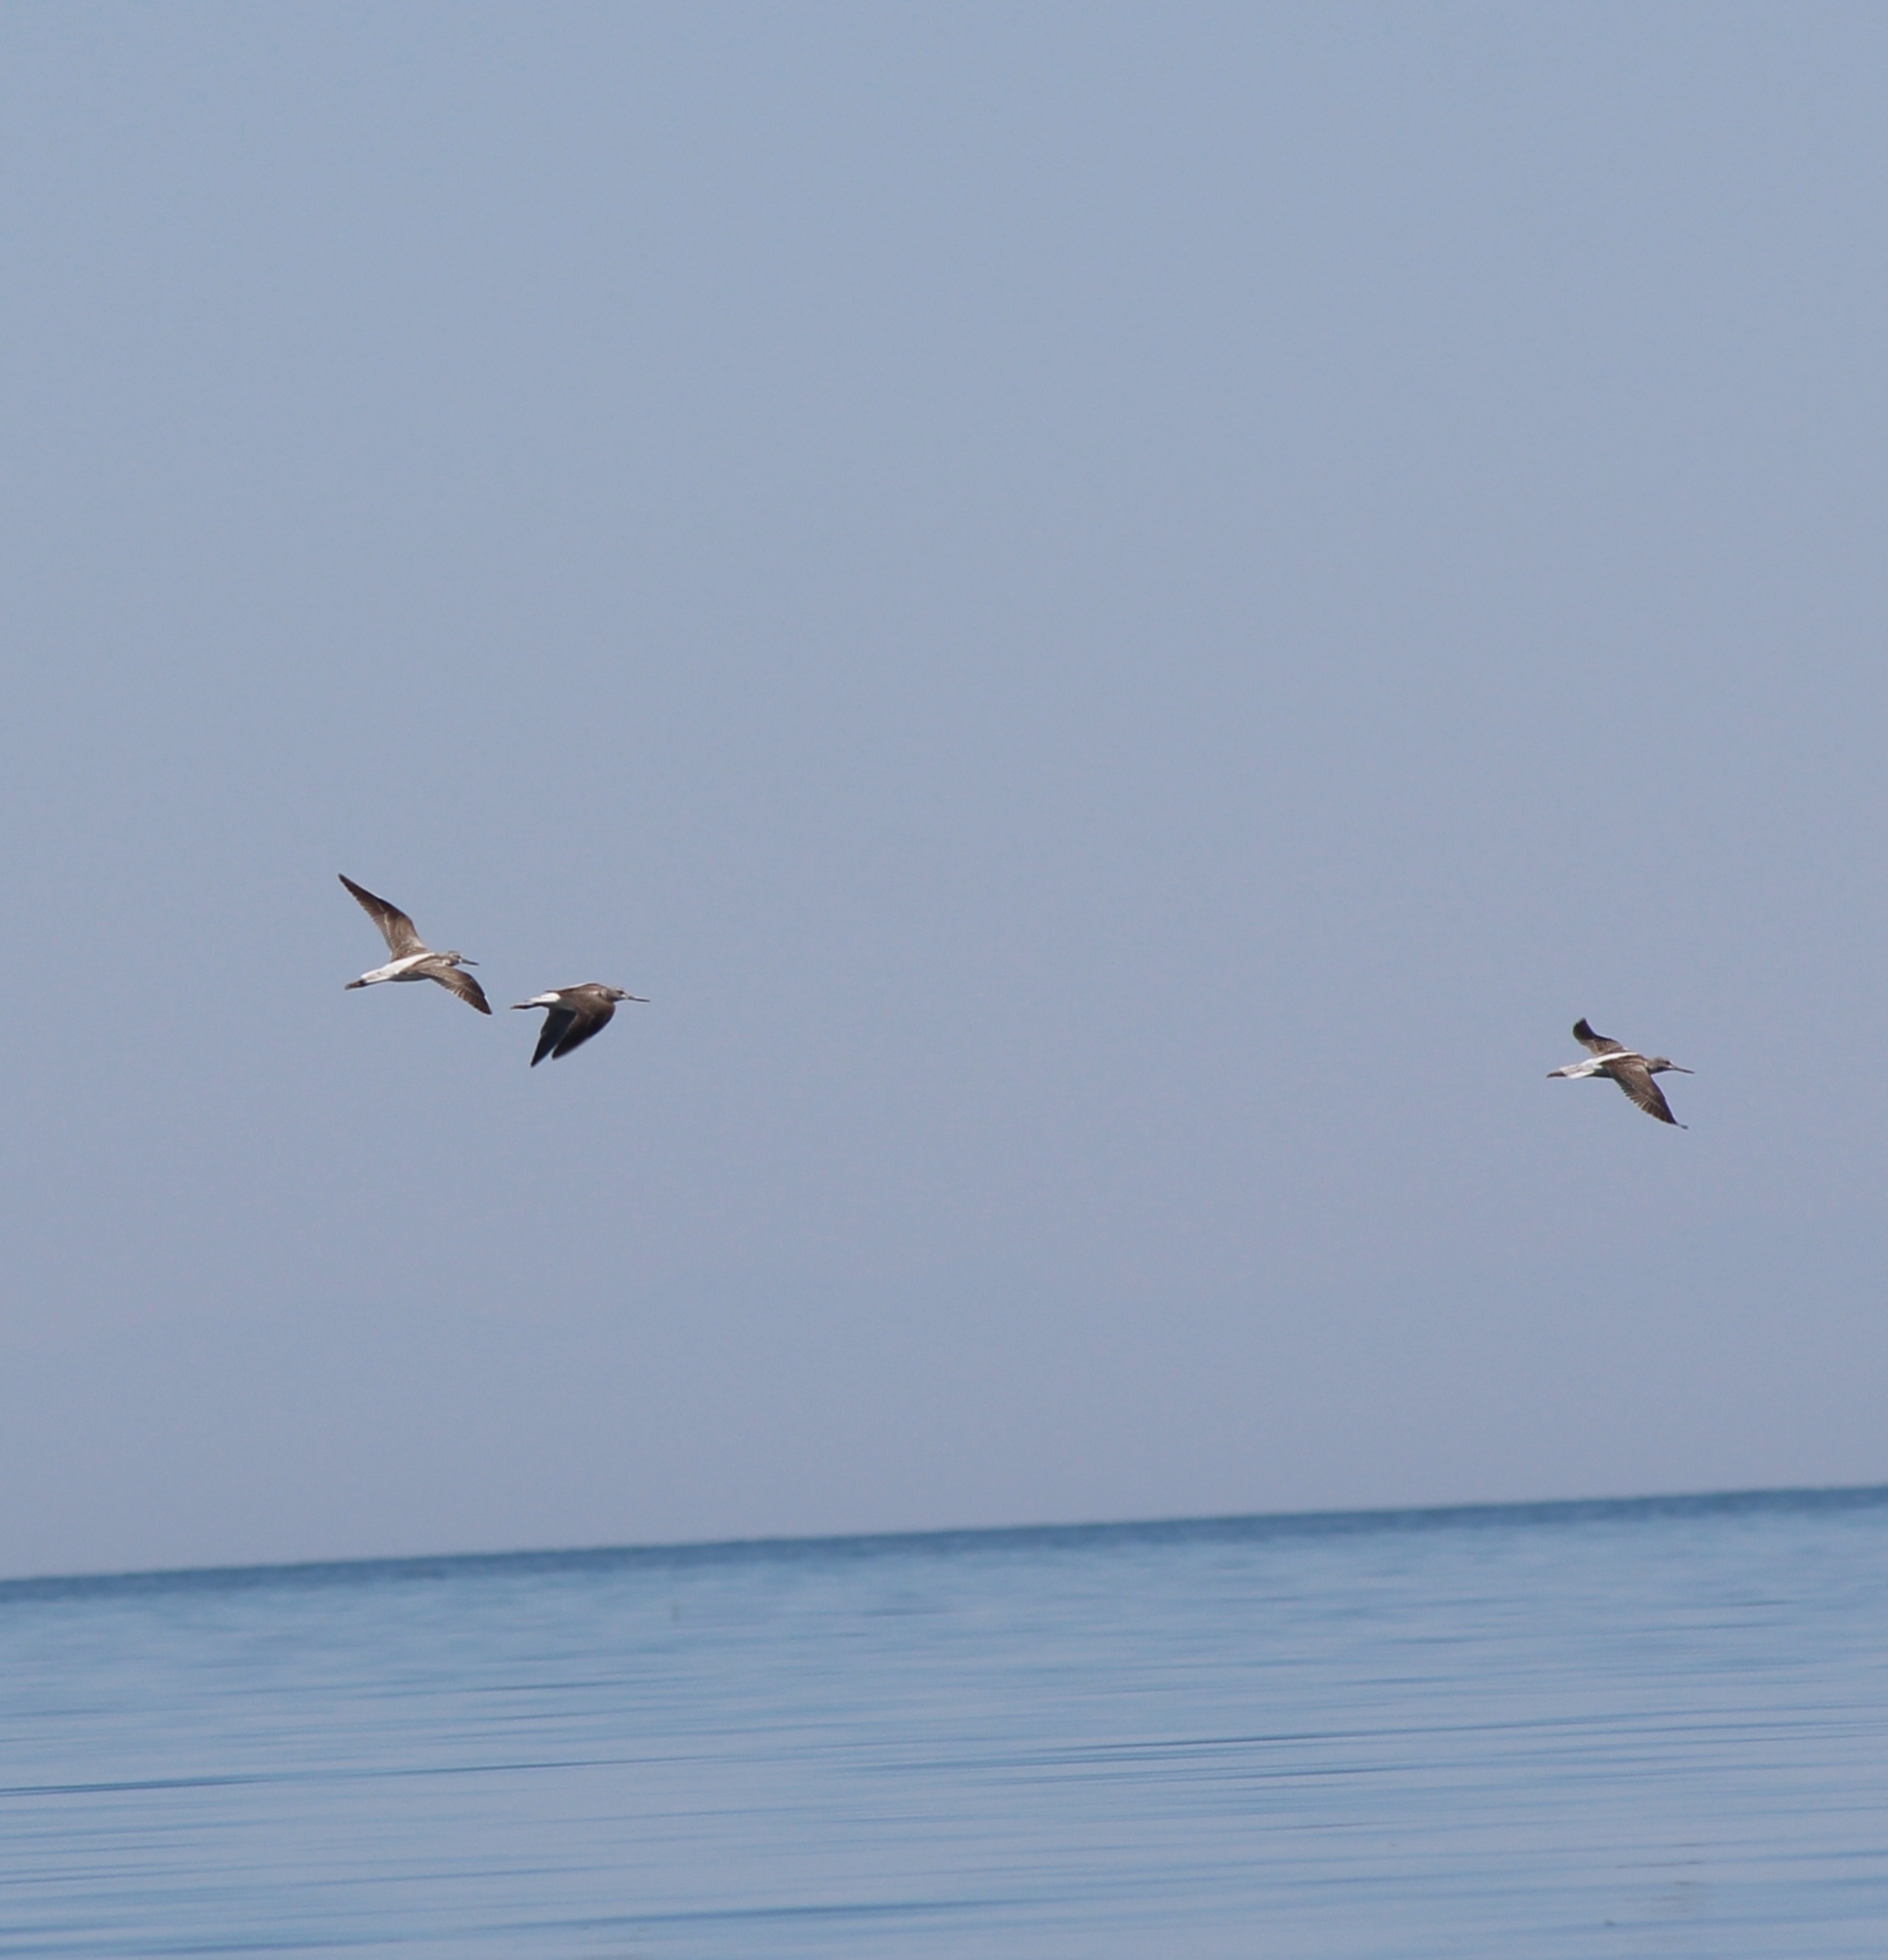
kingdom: Animalia
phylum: Chordata
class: Aves
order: Charadriiformes
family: Scolopacidae
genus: Tringa
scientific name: Tringa nebularia
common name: Common greenshank
